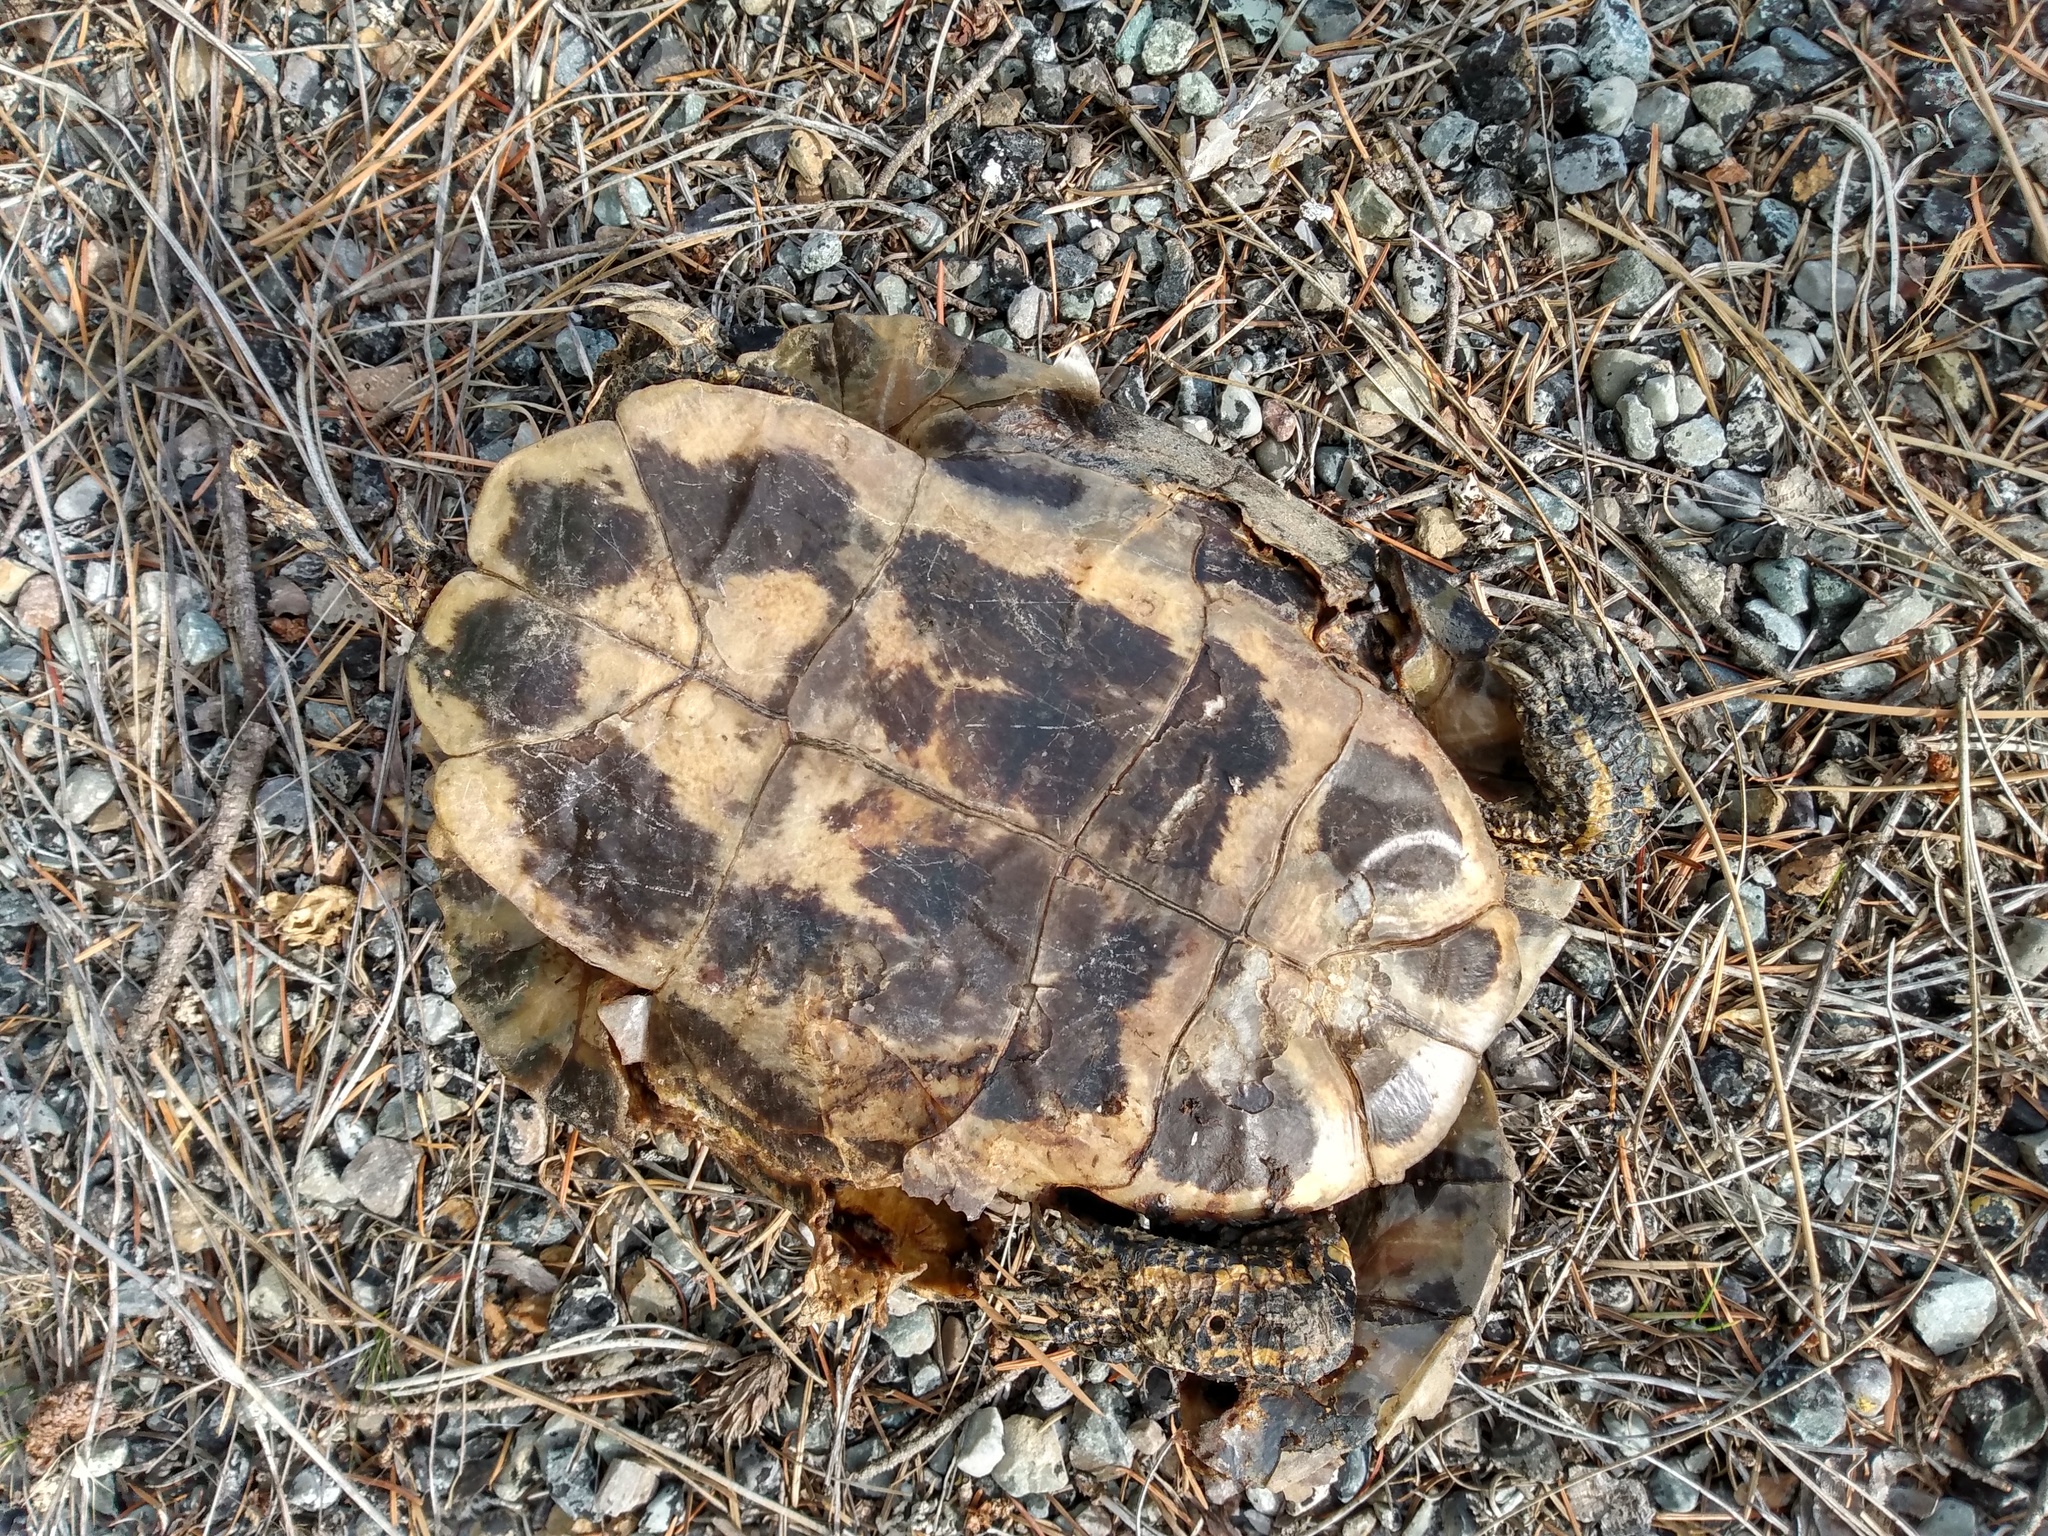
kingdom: Animalia
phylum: Chordata
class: Testudines
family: Emydidae
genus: Trachemys
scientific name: Trachemys scripta
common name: Slider
